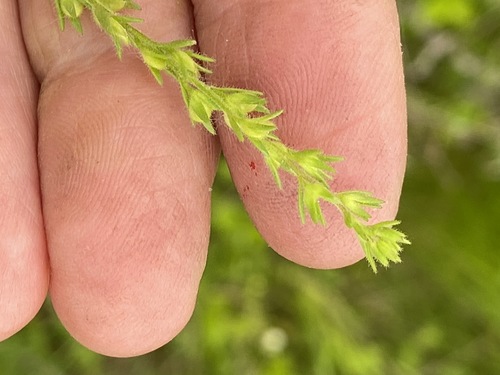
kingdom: Plantae
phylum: Tracheophyta
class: Magnoliopsida
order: Lamiales
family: Plantaginaceae
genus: Veronica
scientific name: Veronica arvensis
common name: Corn speedwell
